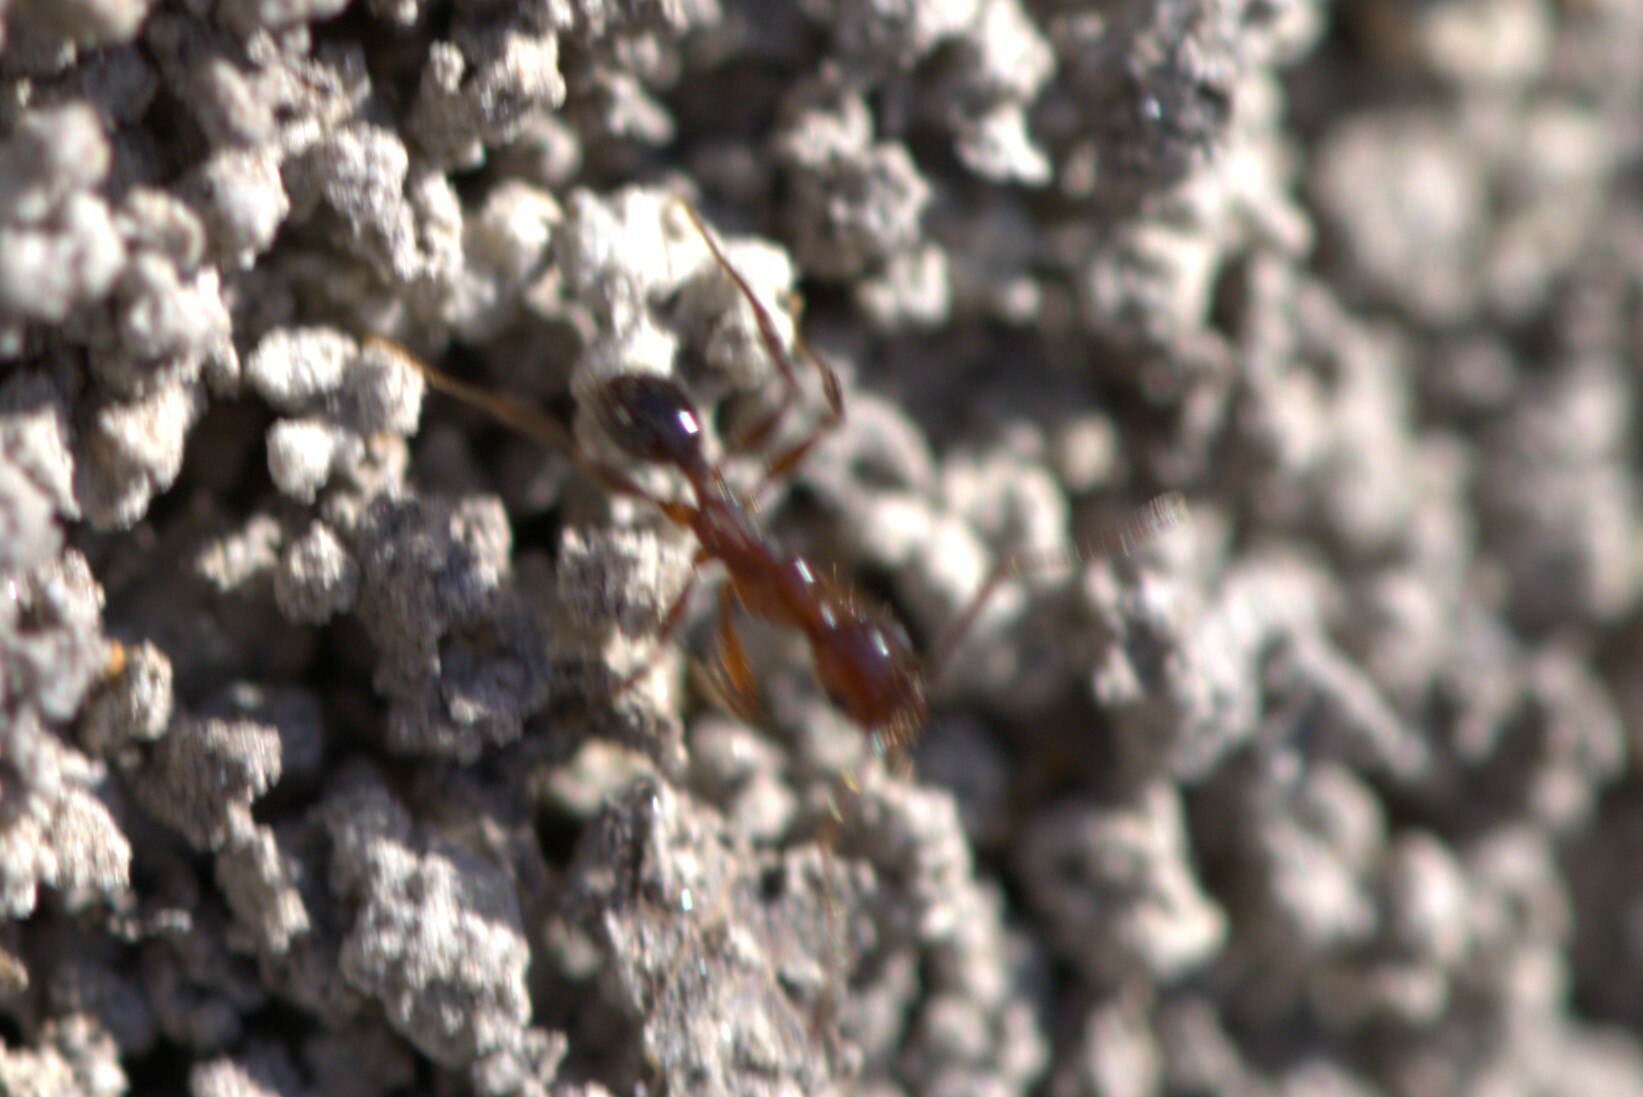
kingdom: Animalia
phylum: Arthropoda
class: Insecta
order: Hymenoptera
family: Formicidae
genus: Pheidole
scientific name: Pheidole obscurithorax
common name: Obscure big-headed ant
